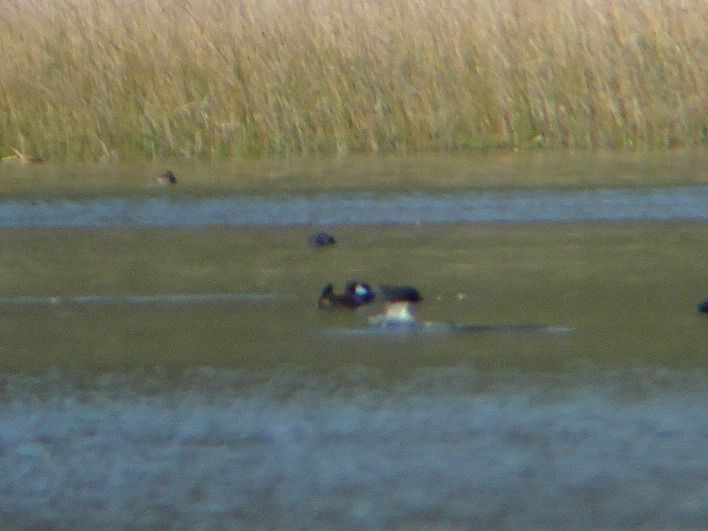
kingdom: Animalia
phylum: Chordata
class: Aves
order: Anseriformes
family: Anatidae
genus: Oxyura
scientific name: Oxyura maccoa
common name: Maccoa duck
